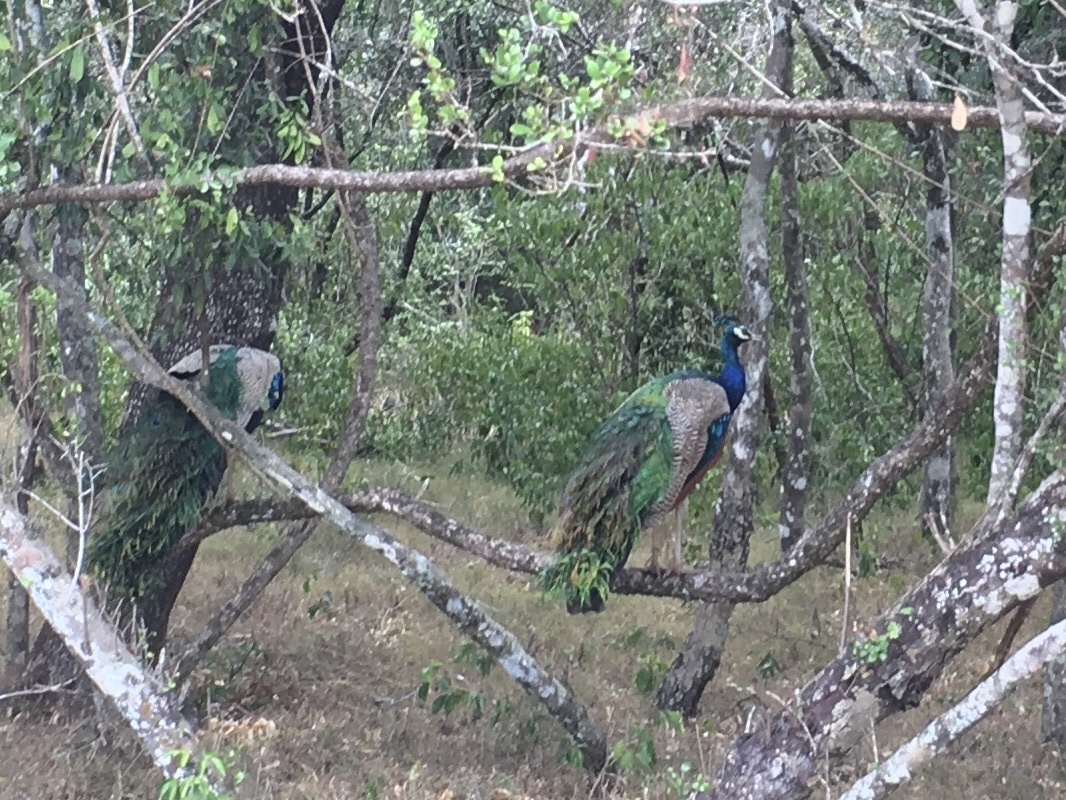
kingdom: Animalia
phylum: Chordata
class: Aves
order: Galliformes
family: Phasianidae
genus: Pavo
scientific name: Pavo cristatus
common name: Indian peafowl
